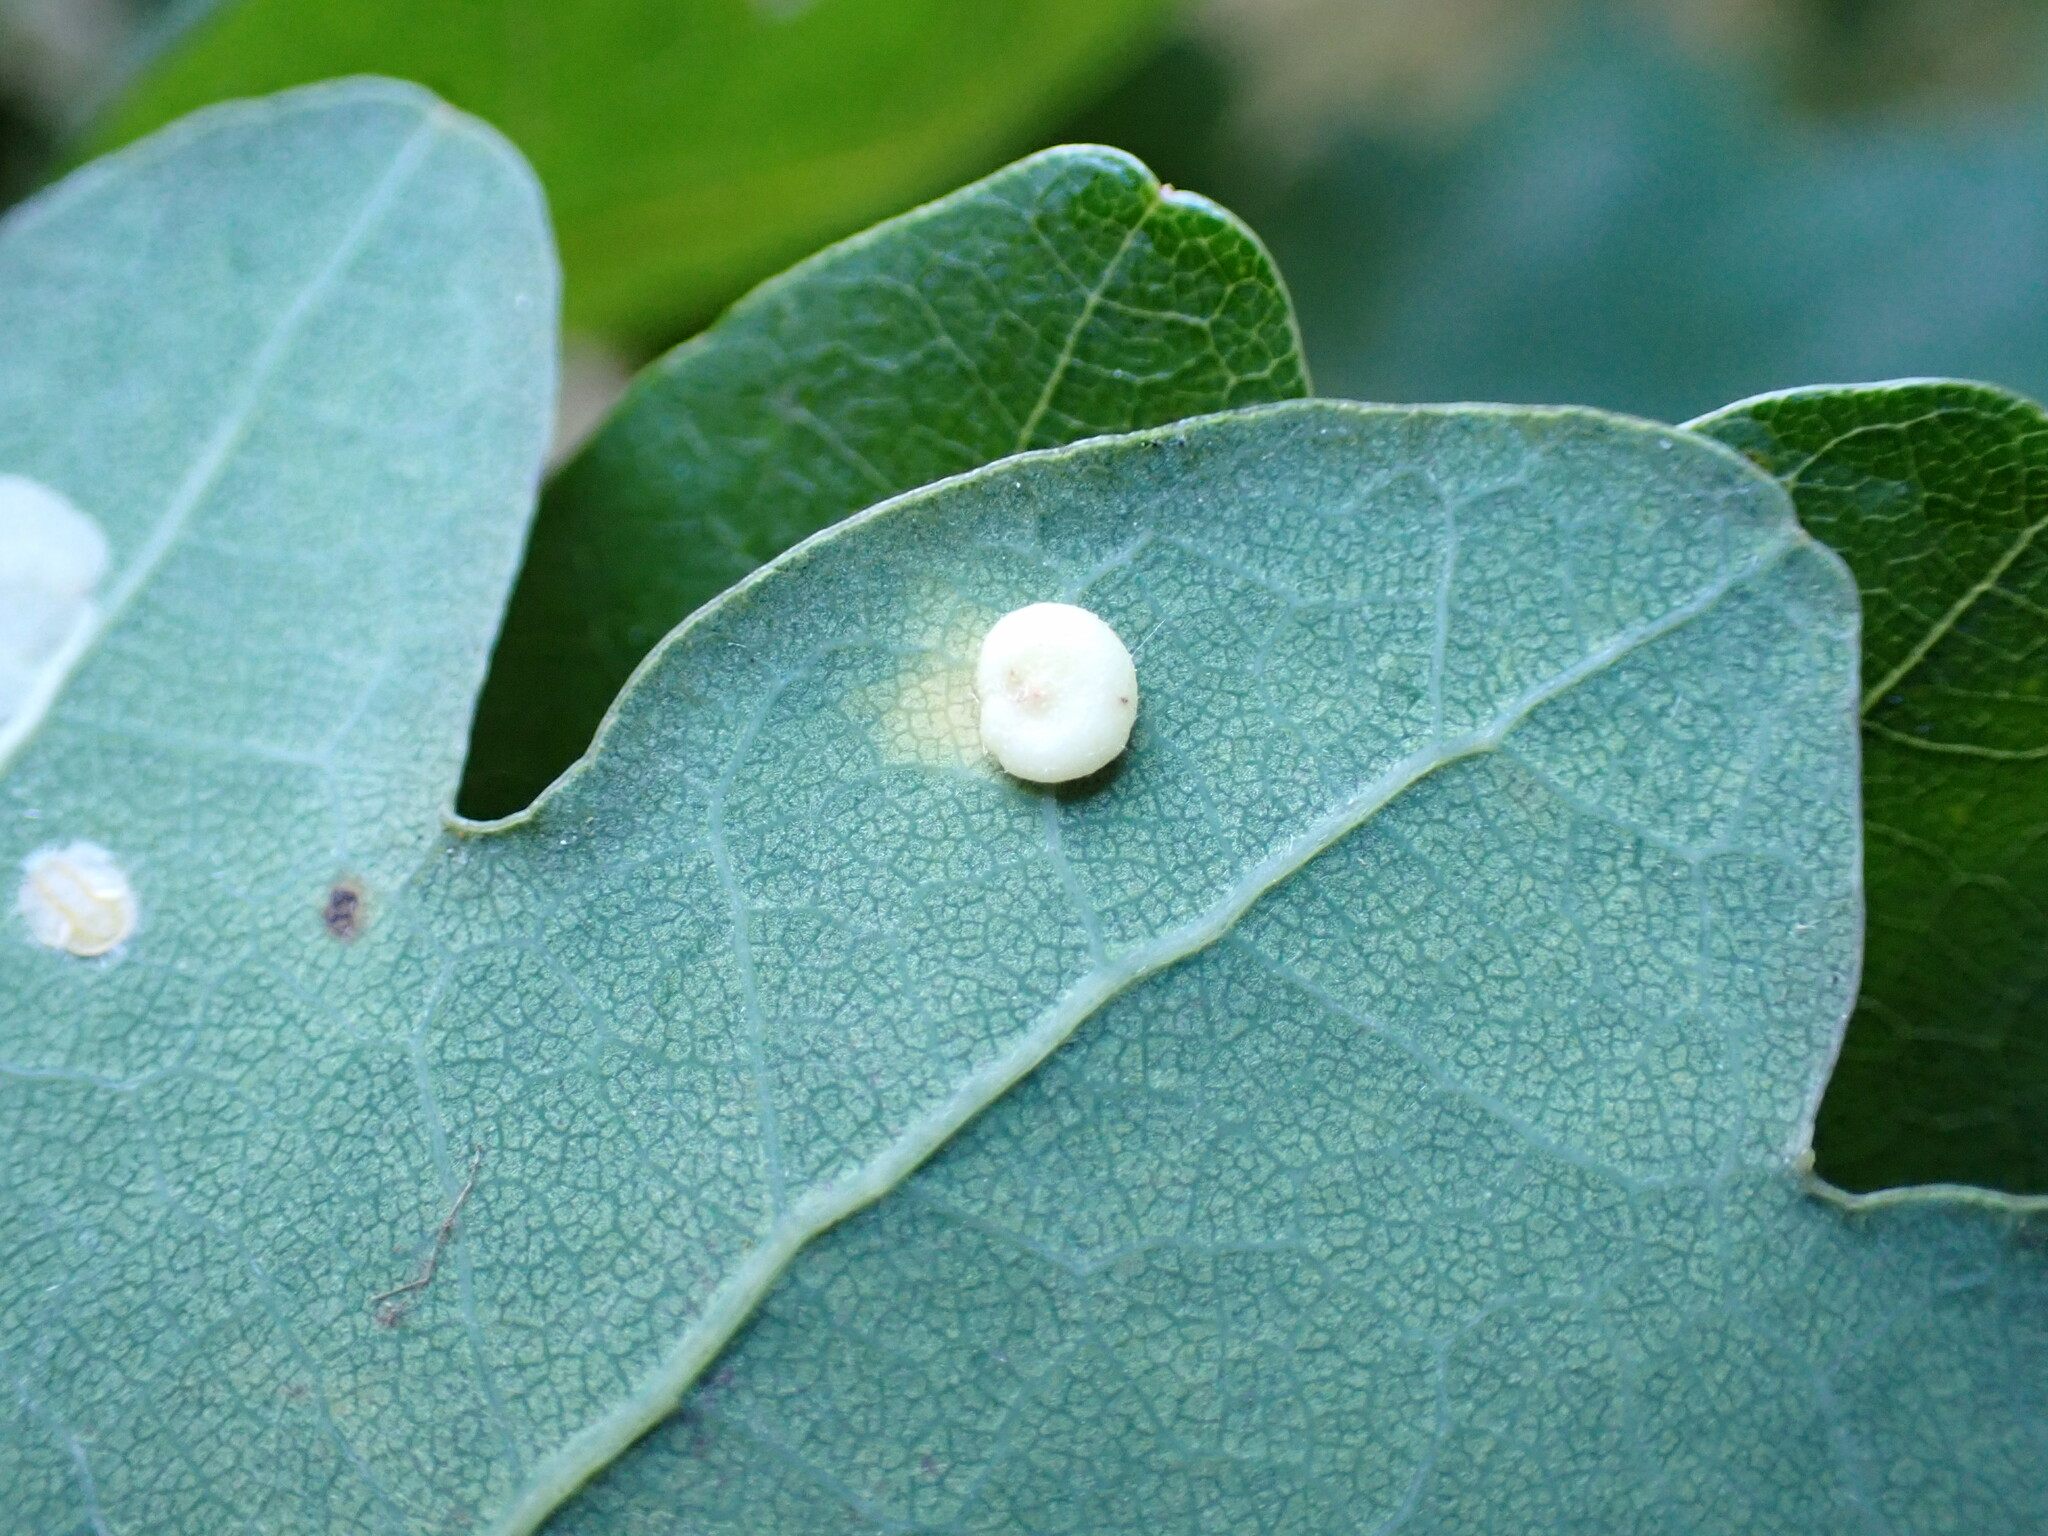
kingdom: Animalia
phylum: Arthropoda
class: Insecta
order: Hymenoptera
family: Cynipidae
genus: Neuroterus
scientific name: Neuroterus albipes
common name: Smooth spangle gall
